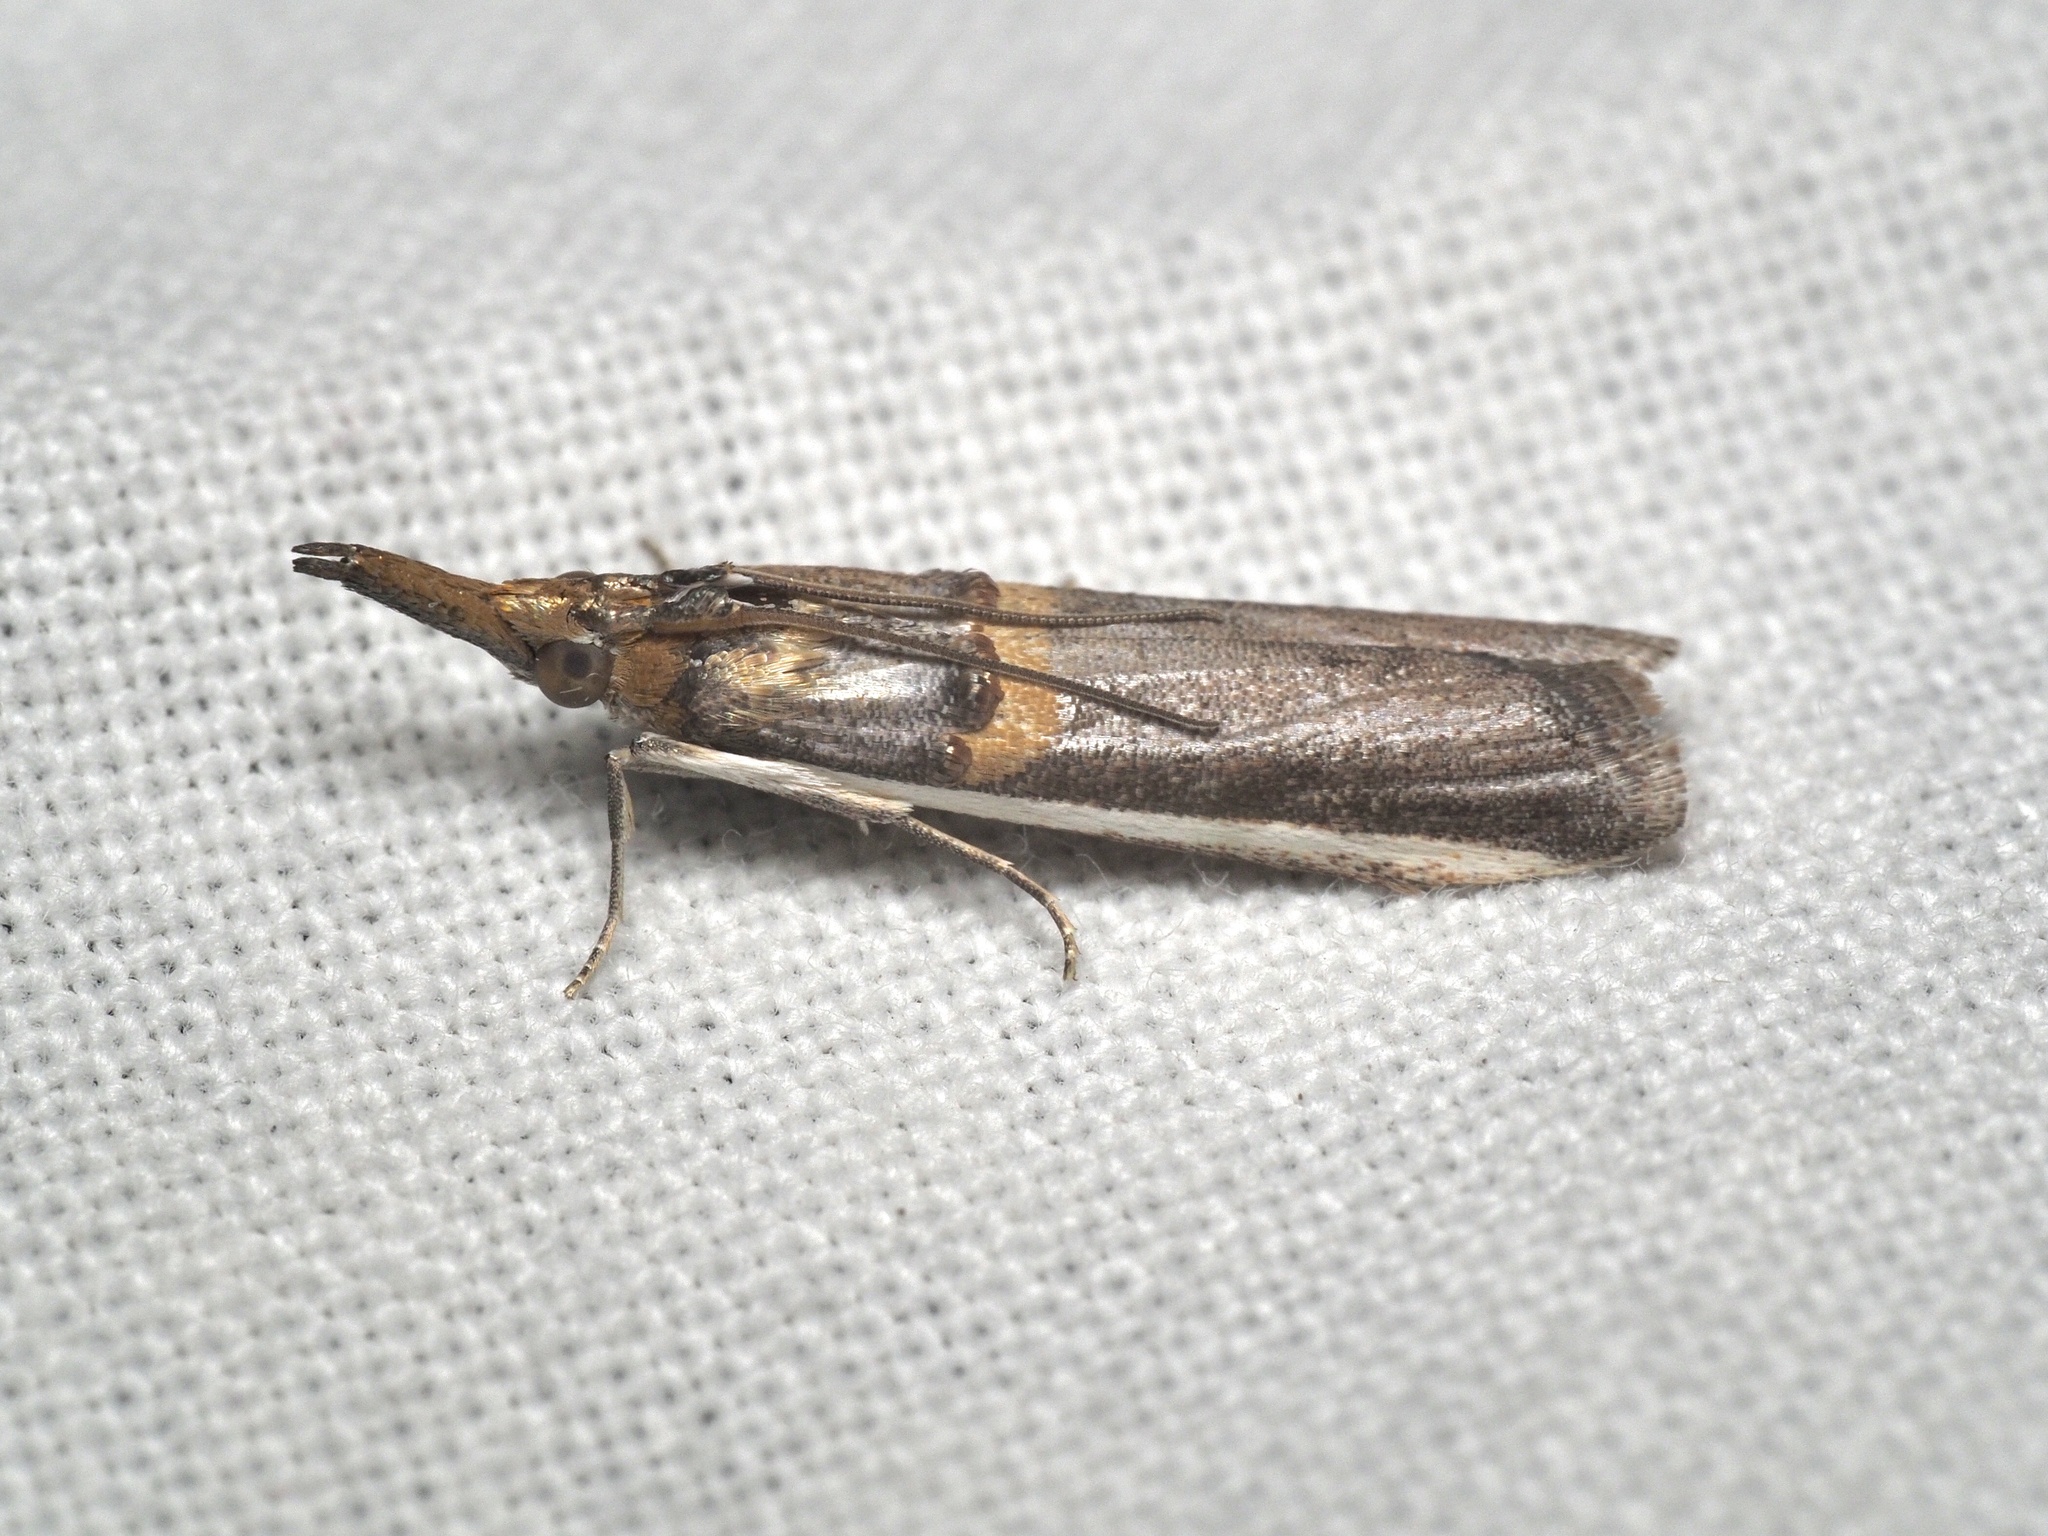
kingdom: Animalia
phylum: Arthropoda
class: Insecta
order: Lepidoptera
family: Pyralidae
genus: Etiella
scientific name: Etiella zinckenella
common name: Gold-banded etiella moth
